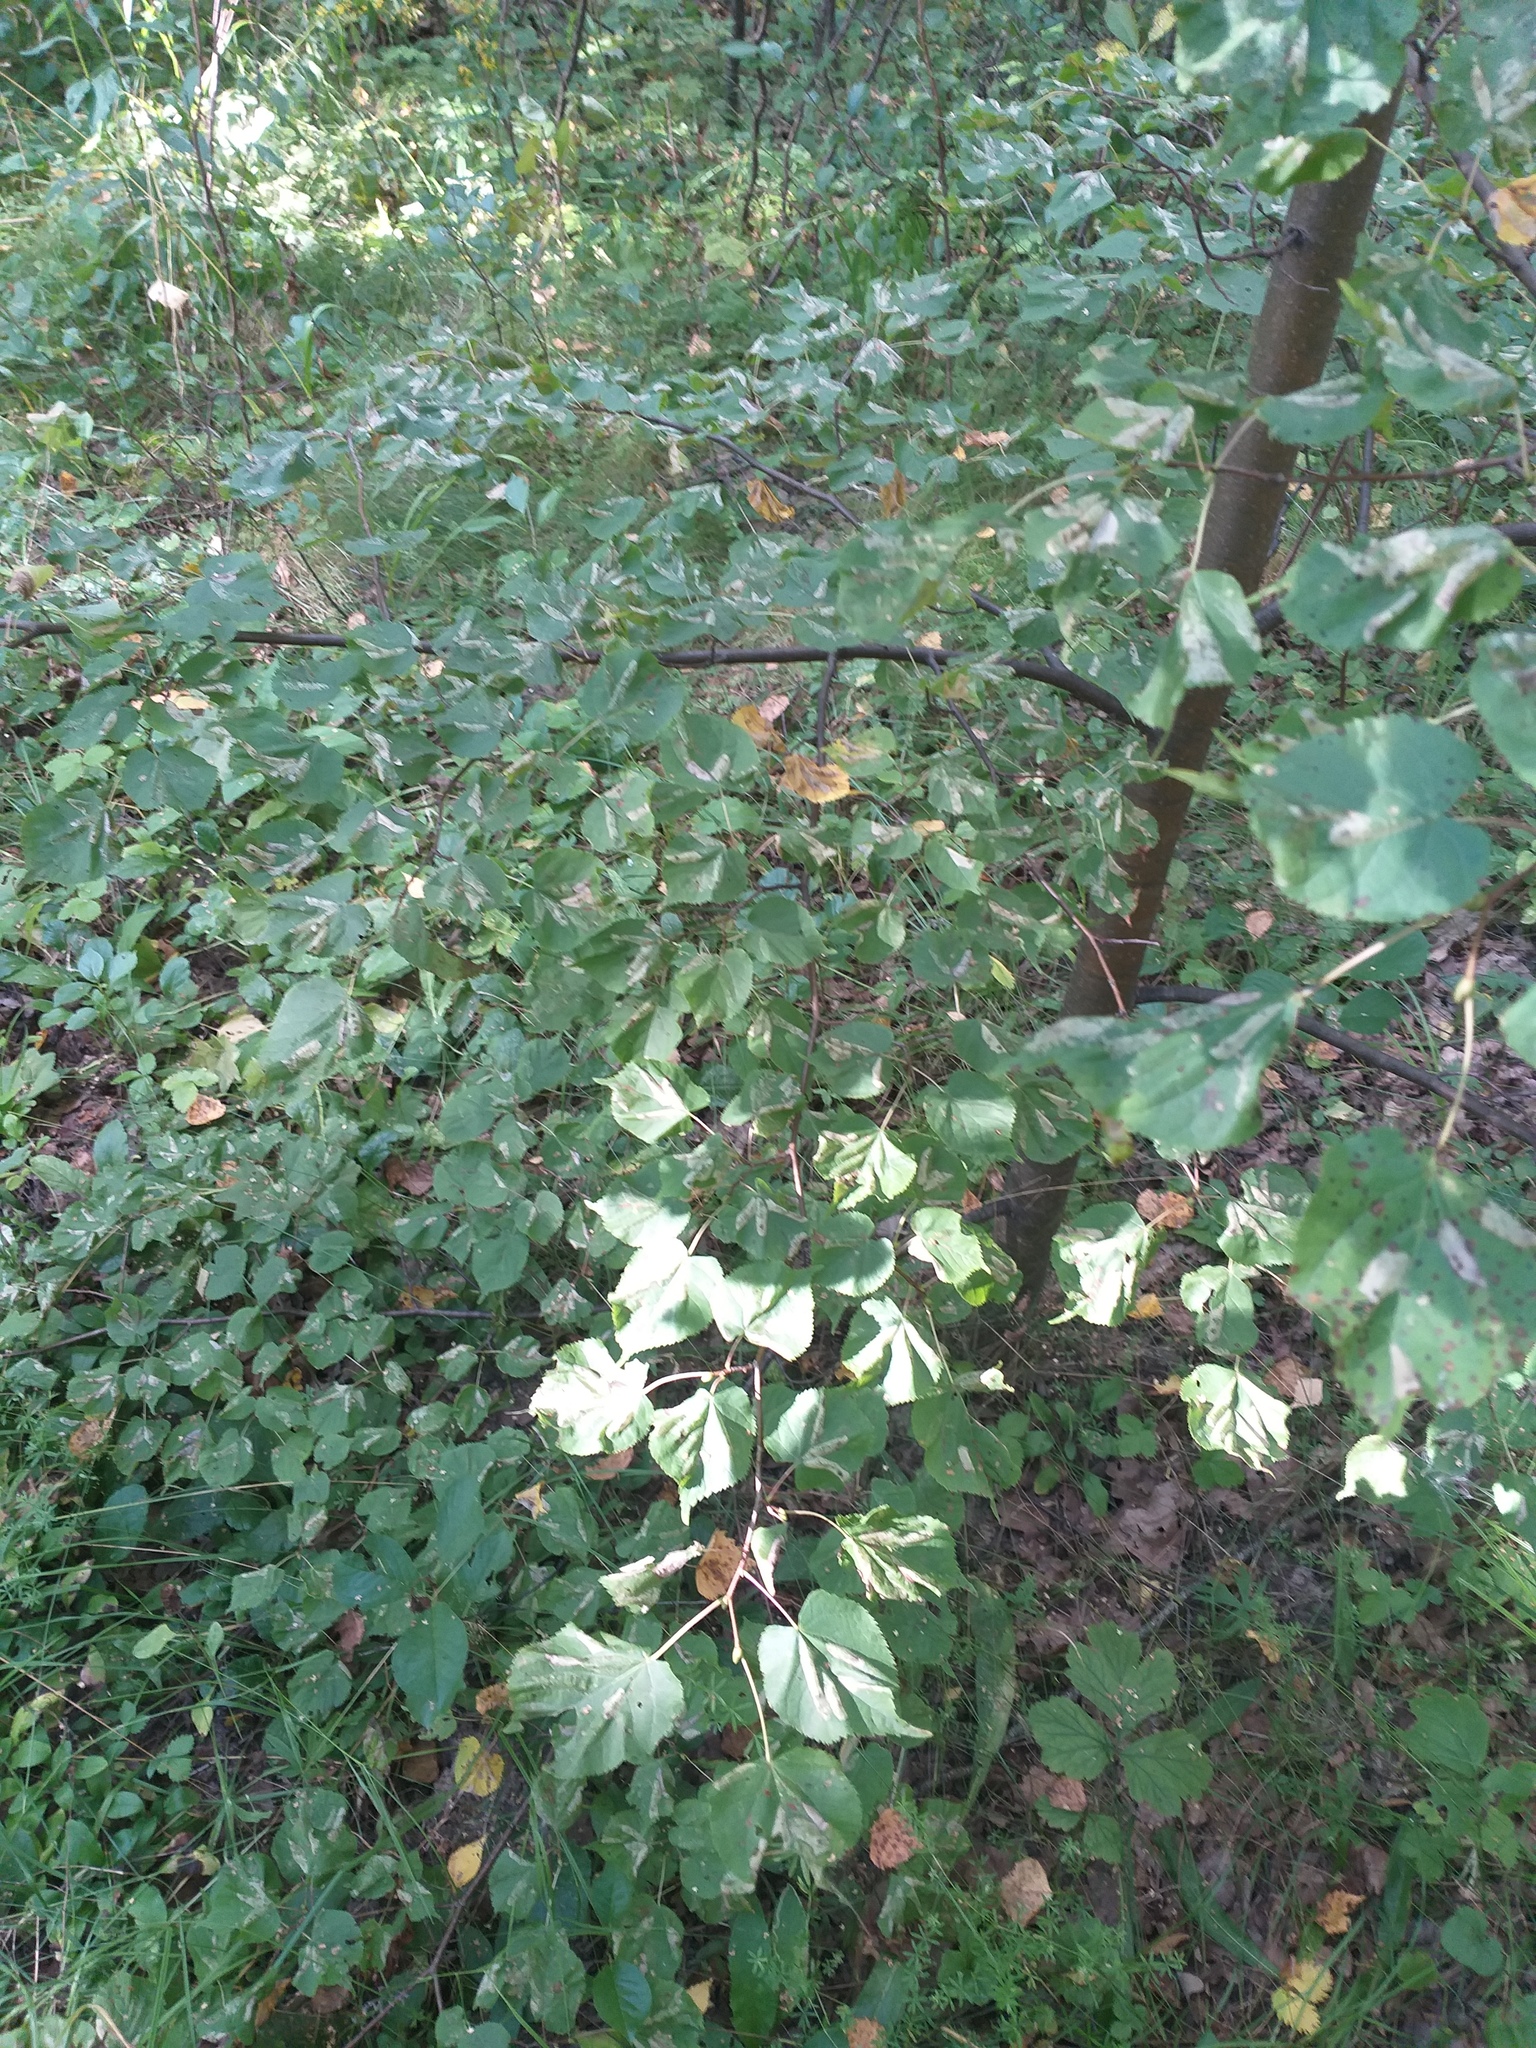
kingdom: Plantae
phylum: Tracheophyta
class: Magnoliopsida
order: Malvales
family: Malvaceae
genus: Tilia
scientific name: Tilia cordata
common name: Small-leaved lime
